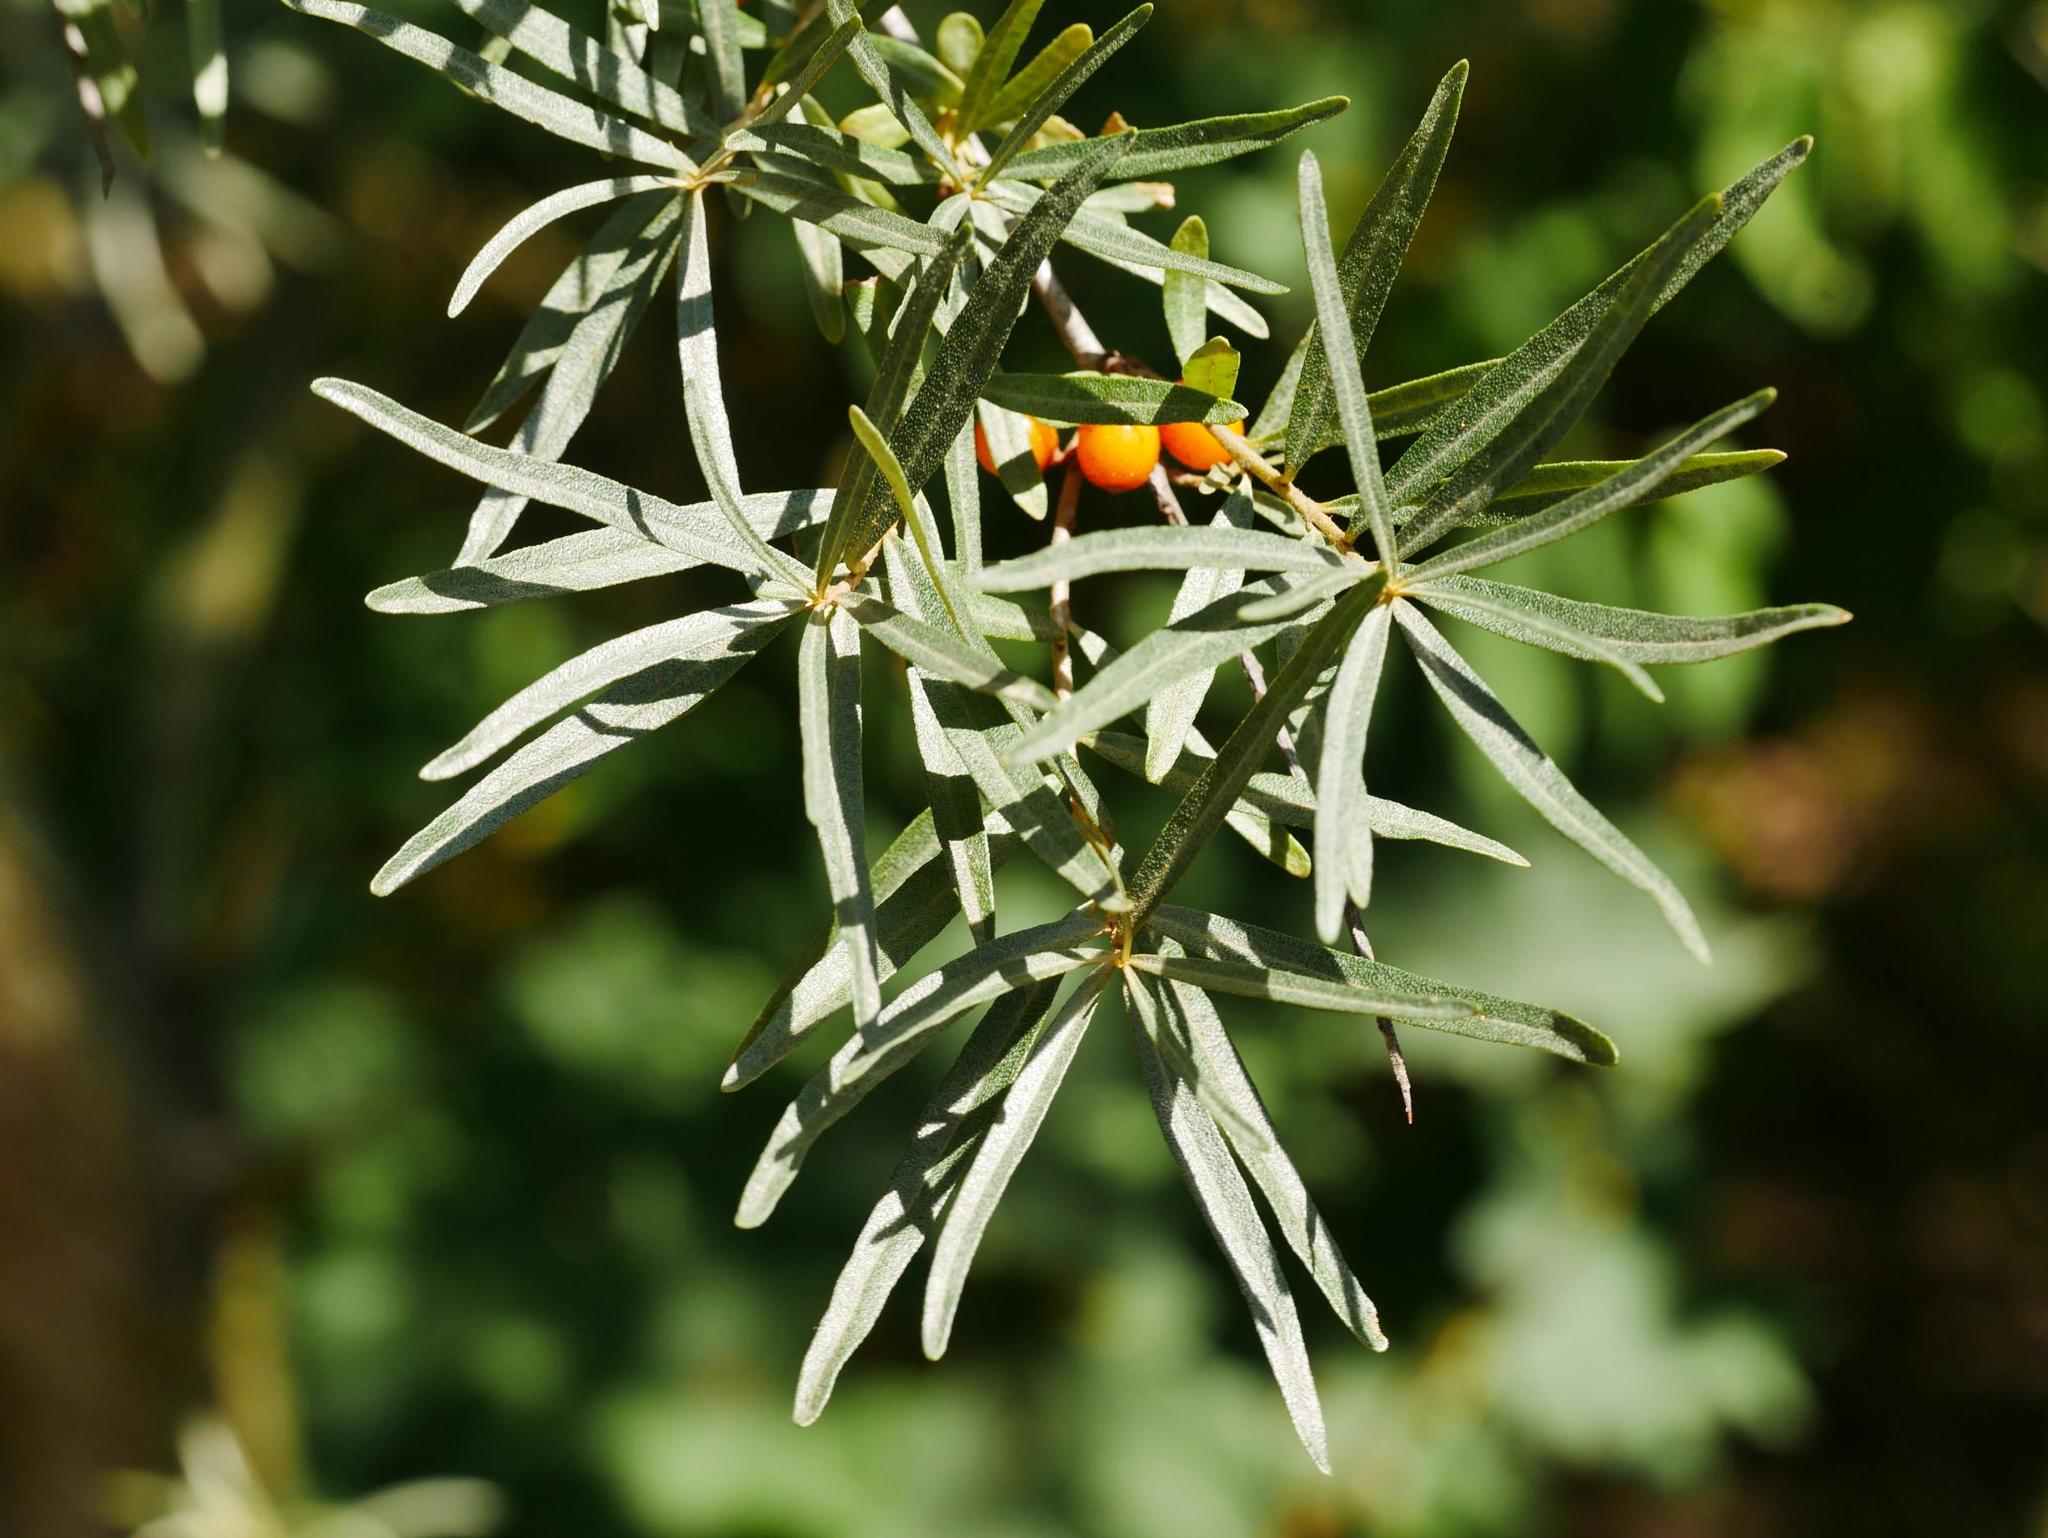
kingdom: Plantae
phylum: Tracheophyta
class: Magnoliopsida
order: Rosales
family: Elaeagnaceae
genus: Hippophae
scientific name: Hippophae rhamnoides
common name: Sea-buckthorn
